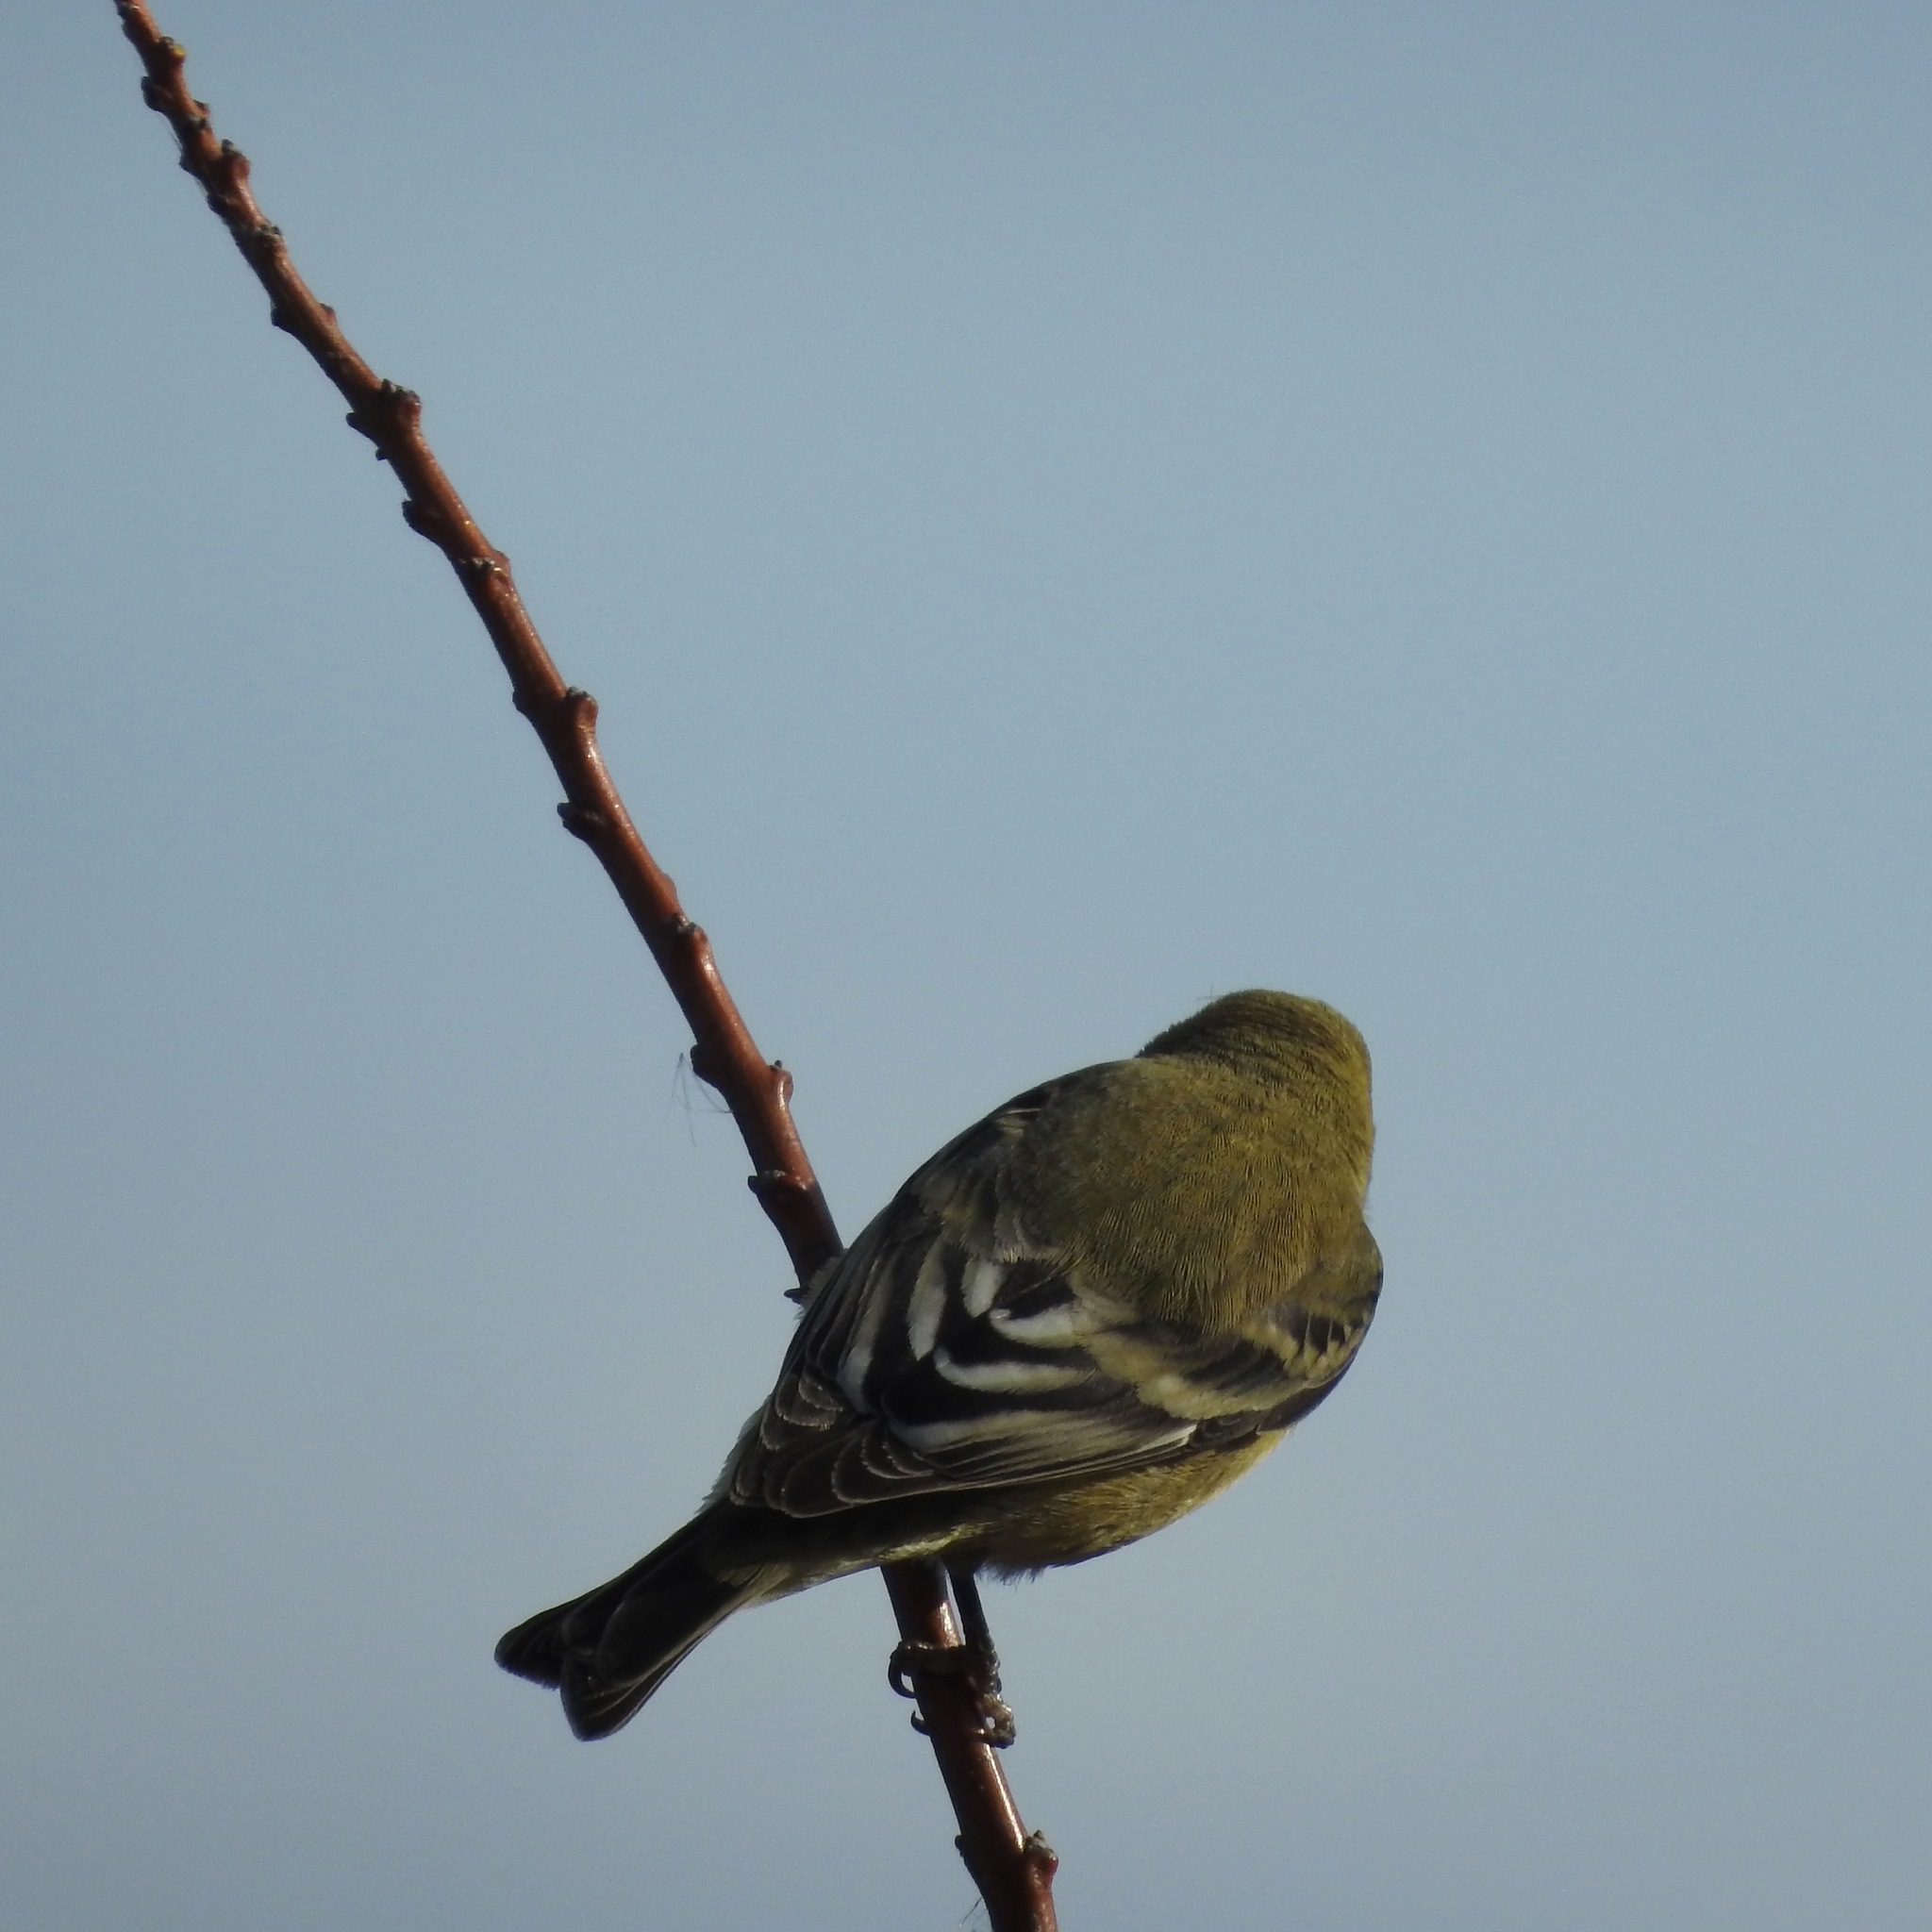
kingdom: Animalia
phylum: Chordata
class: Aves
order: Passeriformes
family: Fringillidae
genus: Spinus
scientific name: Spinus psaltria
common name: Lesser goldfinch
